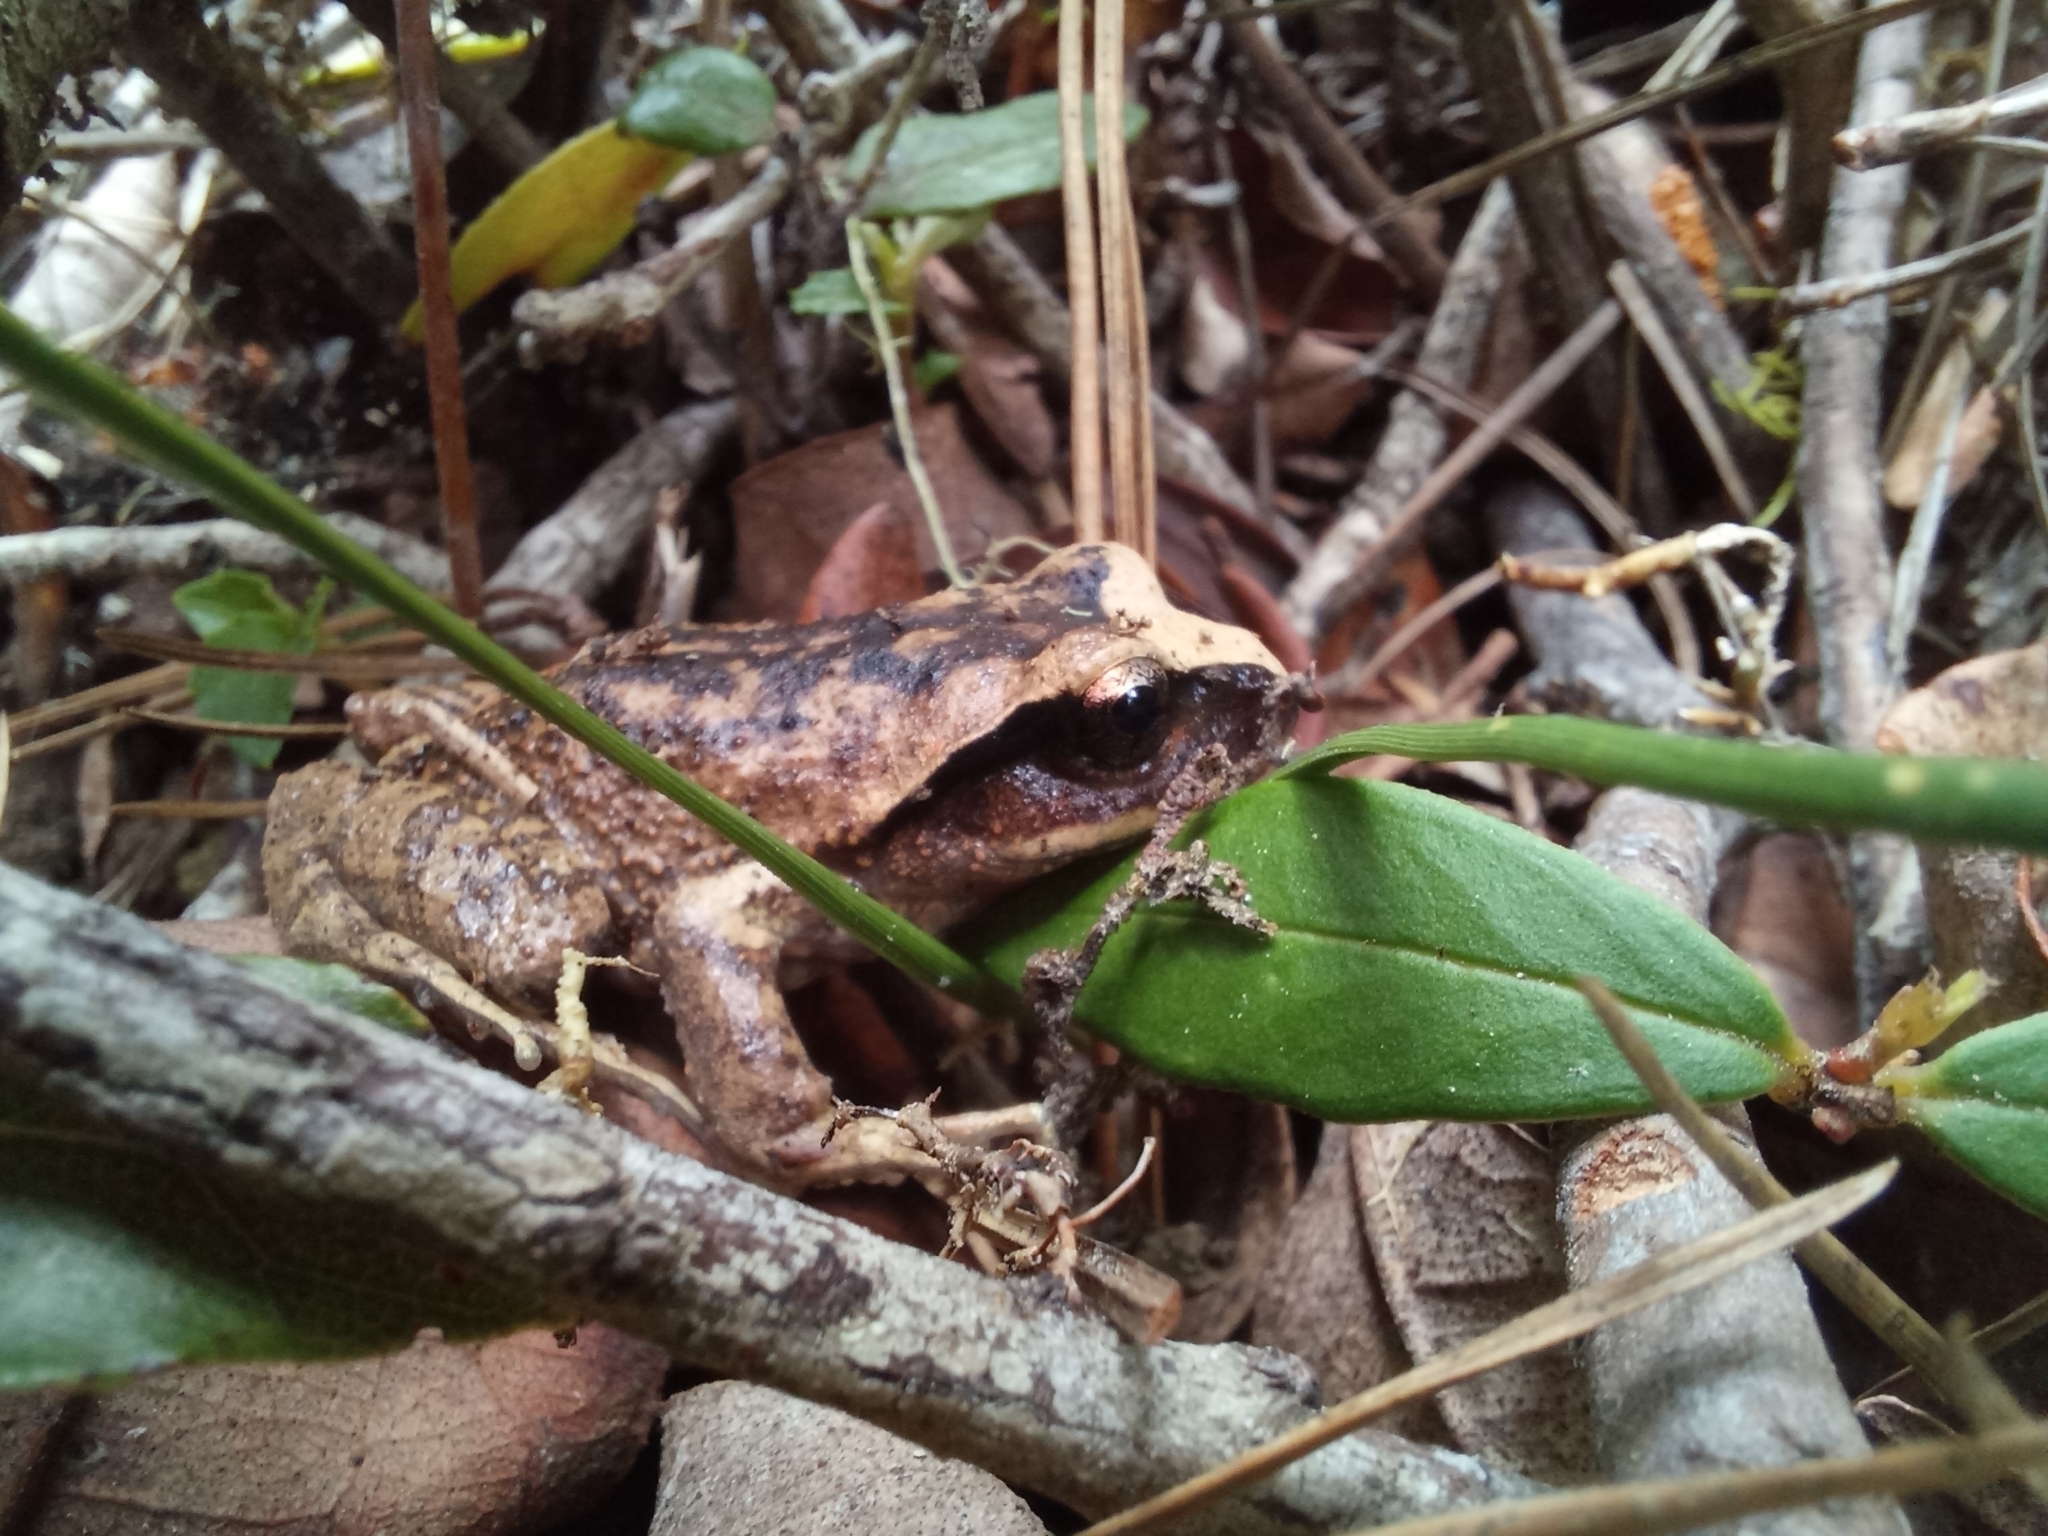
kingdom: Animalia
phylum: Chordata
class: Amphibia
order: Anura
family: Alsodidae
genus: Alsodes
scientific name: Alsodes vanzolinii
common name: Vanzolini's spiny-chest frog
